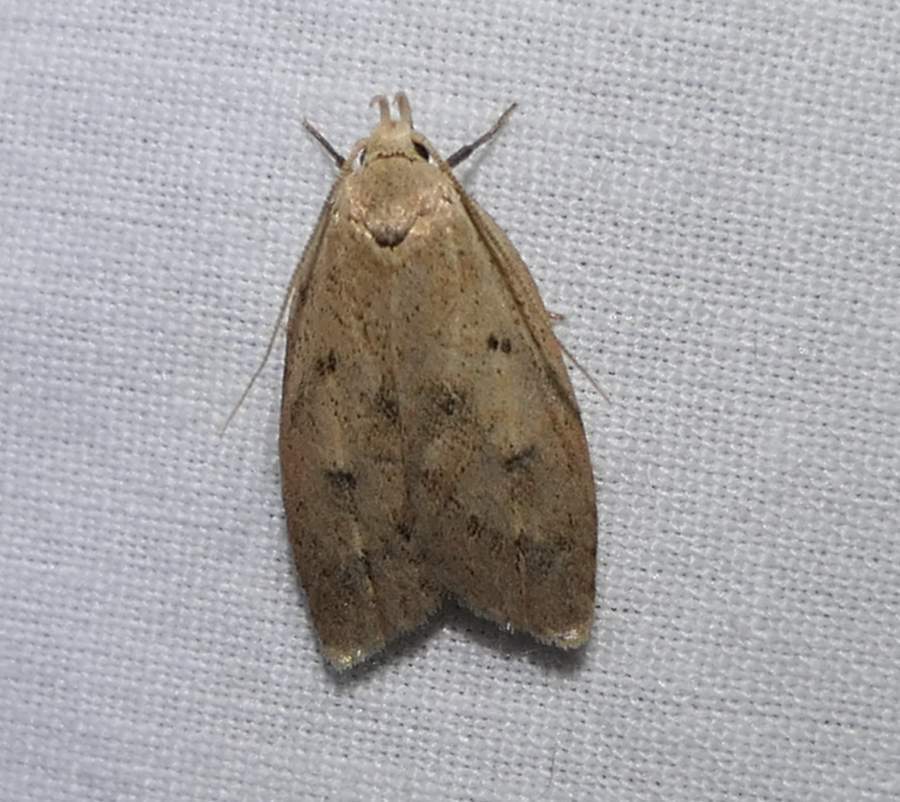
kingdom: Animalia
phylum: Arthropoda
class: Insecta
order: Lepidoptera
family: Peleopodidae
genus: Machimia
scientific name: Machimia tentoriferella
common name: Gold-striped leaftier moth
